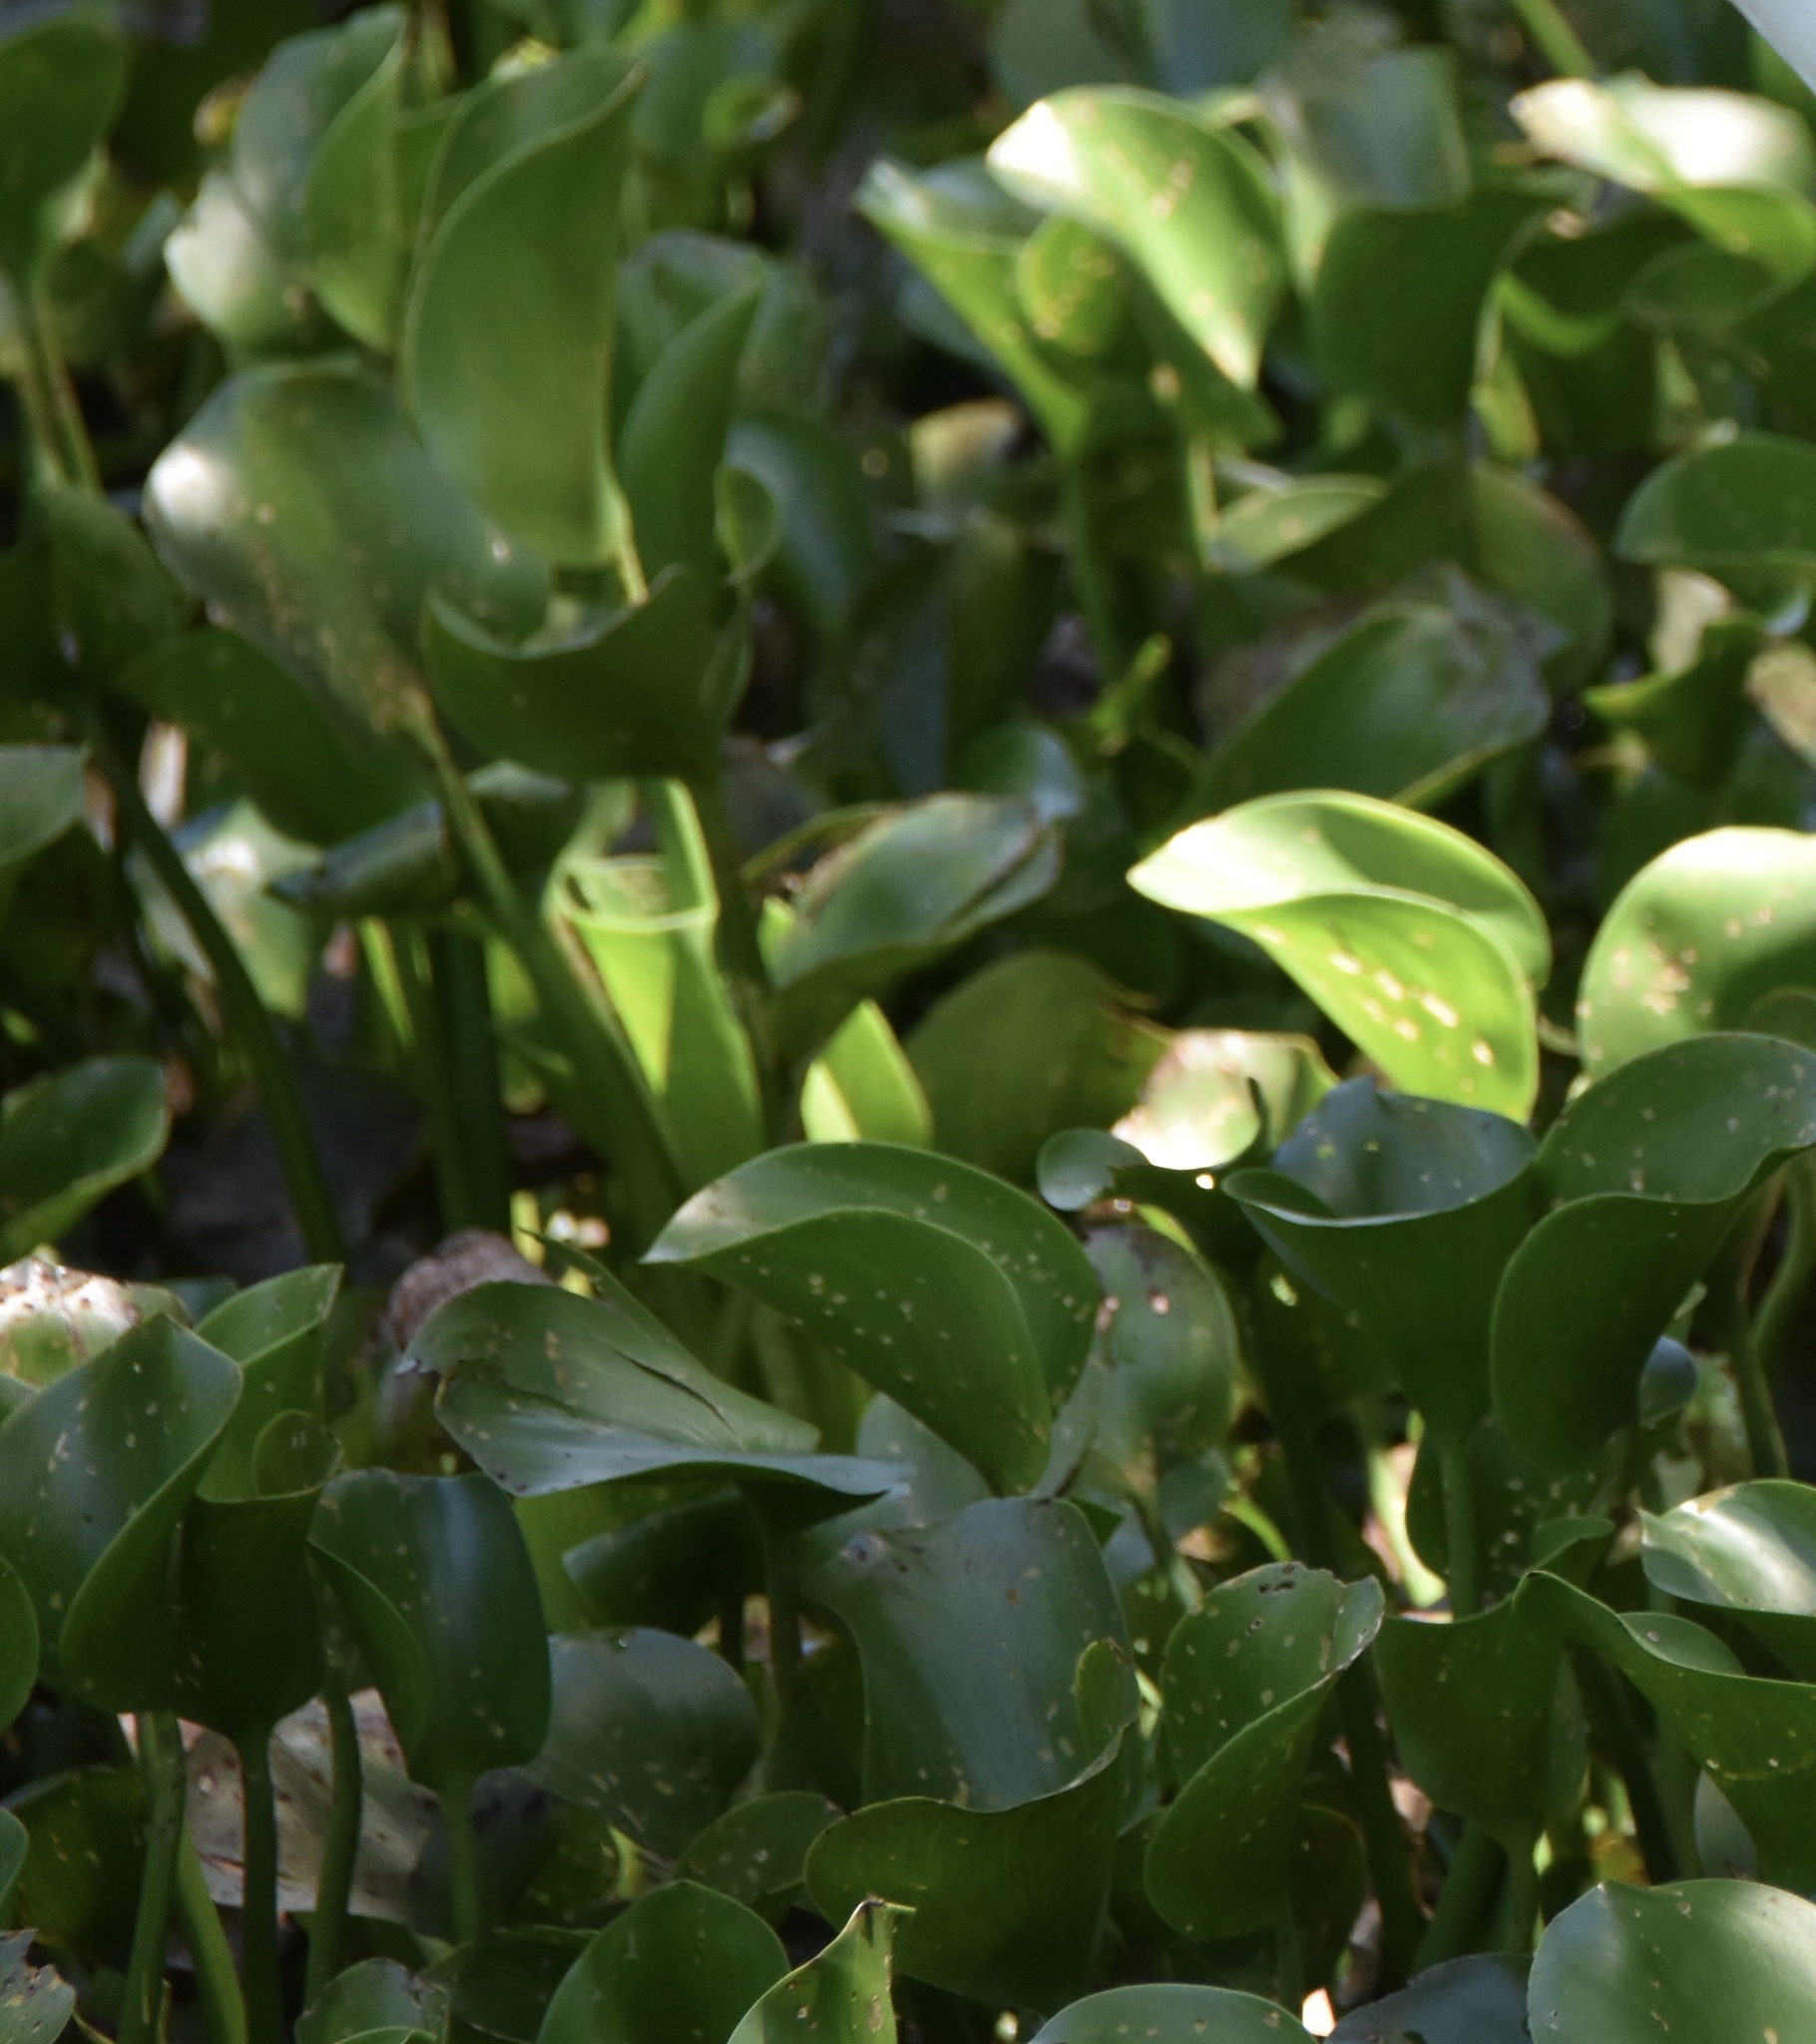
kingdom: Plantae
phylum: Tracheophyta
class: Liliopsida
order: Commelinales
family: Pontederiaceae
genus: Pontederia
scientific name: Pontederia crassipes
